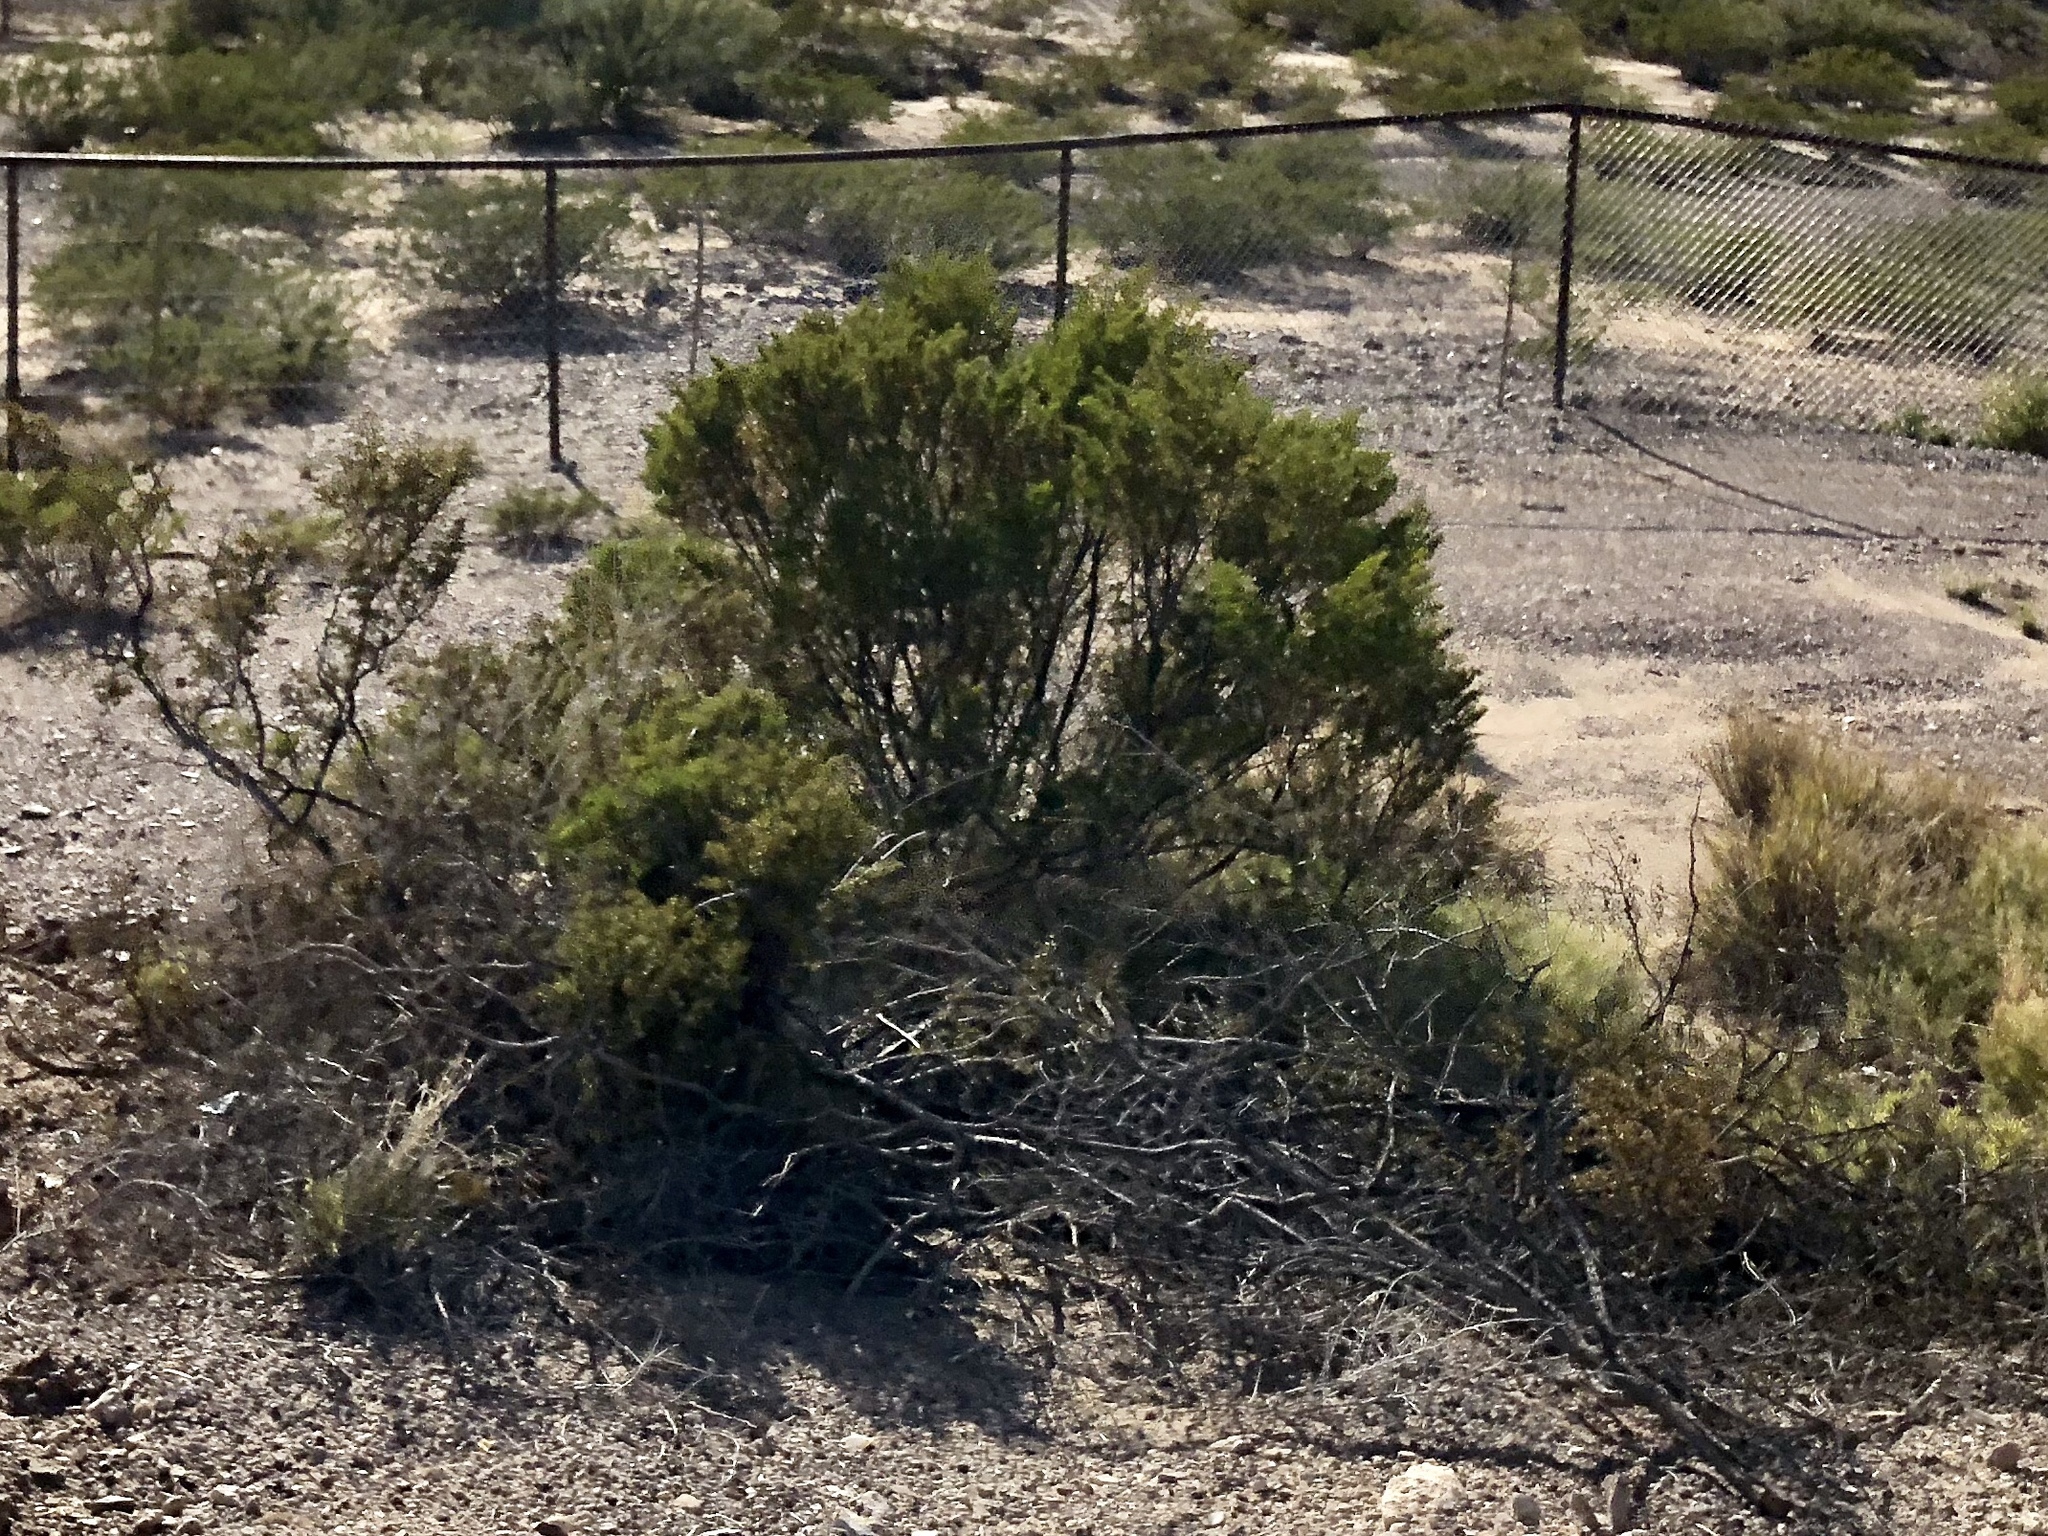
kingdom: Plantae
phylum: Tracheophyta
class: Magnoliopsida
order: Zygophyllales
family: Zygophyllaceae
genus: Larrea
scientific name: Larrea tridentata
